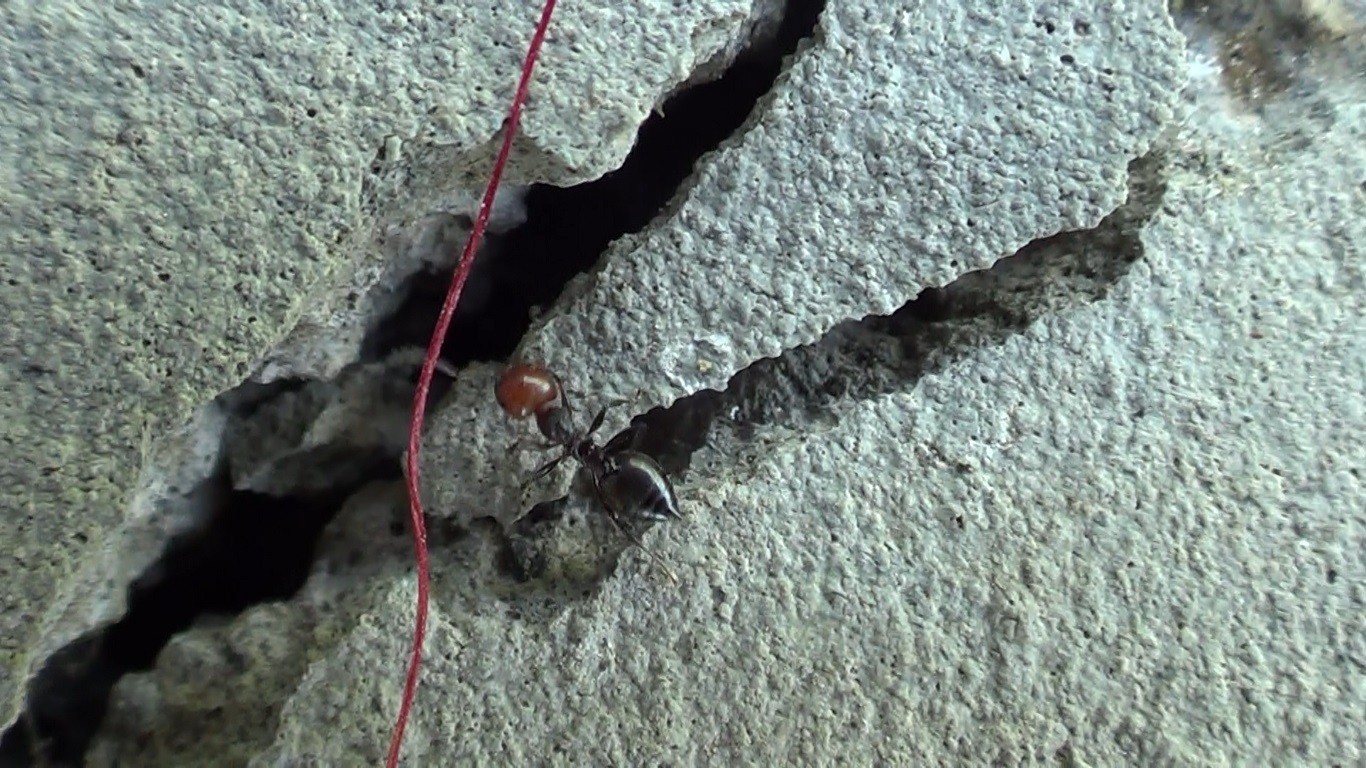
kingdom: Animalia
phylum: Arthropoda
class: Insecta
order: Hymenoptera
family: Formicidae
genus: Crematogaster
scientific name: Crematogaster scutellaris
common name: Fourmi du liège
